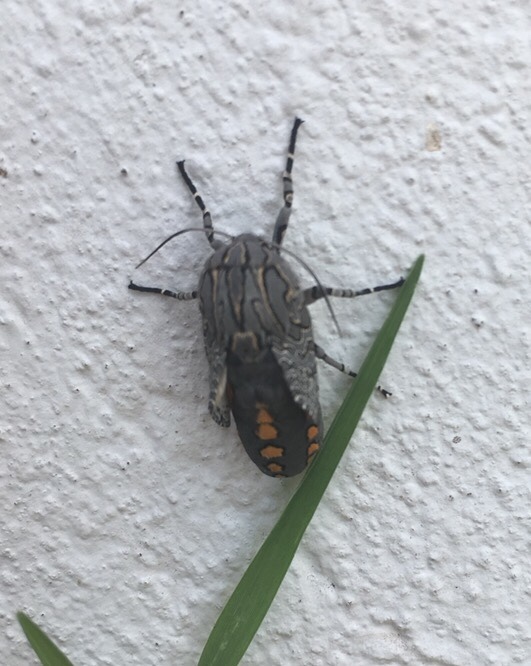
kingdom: Animalia
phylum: Arthropoda
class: Insecta
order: Lepidoptera
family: Erebidae
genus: Hypercompe
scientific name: Hypercompe indecisa
